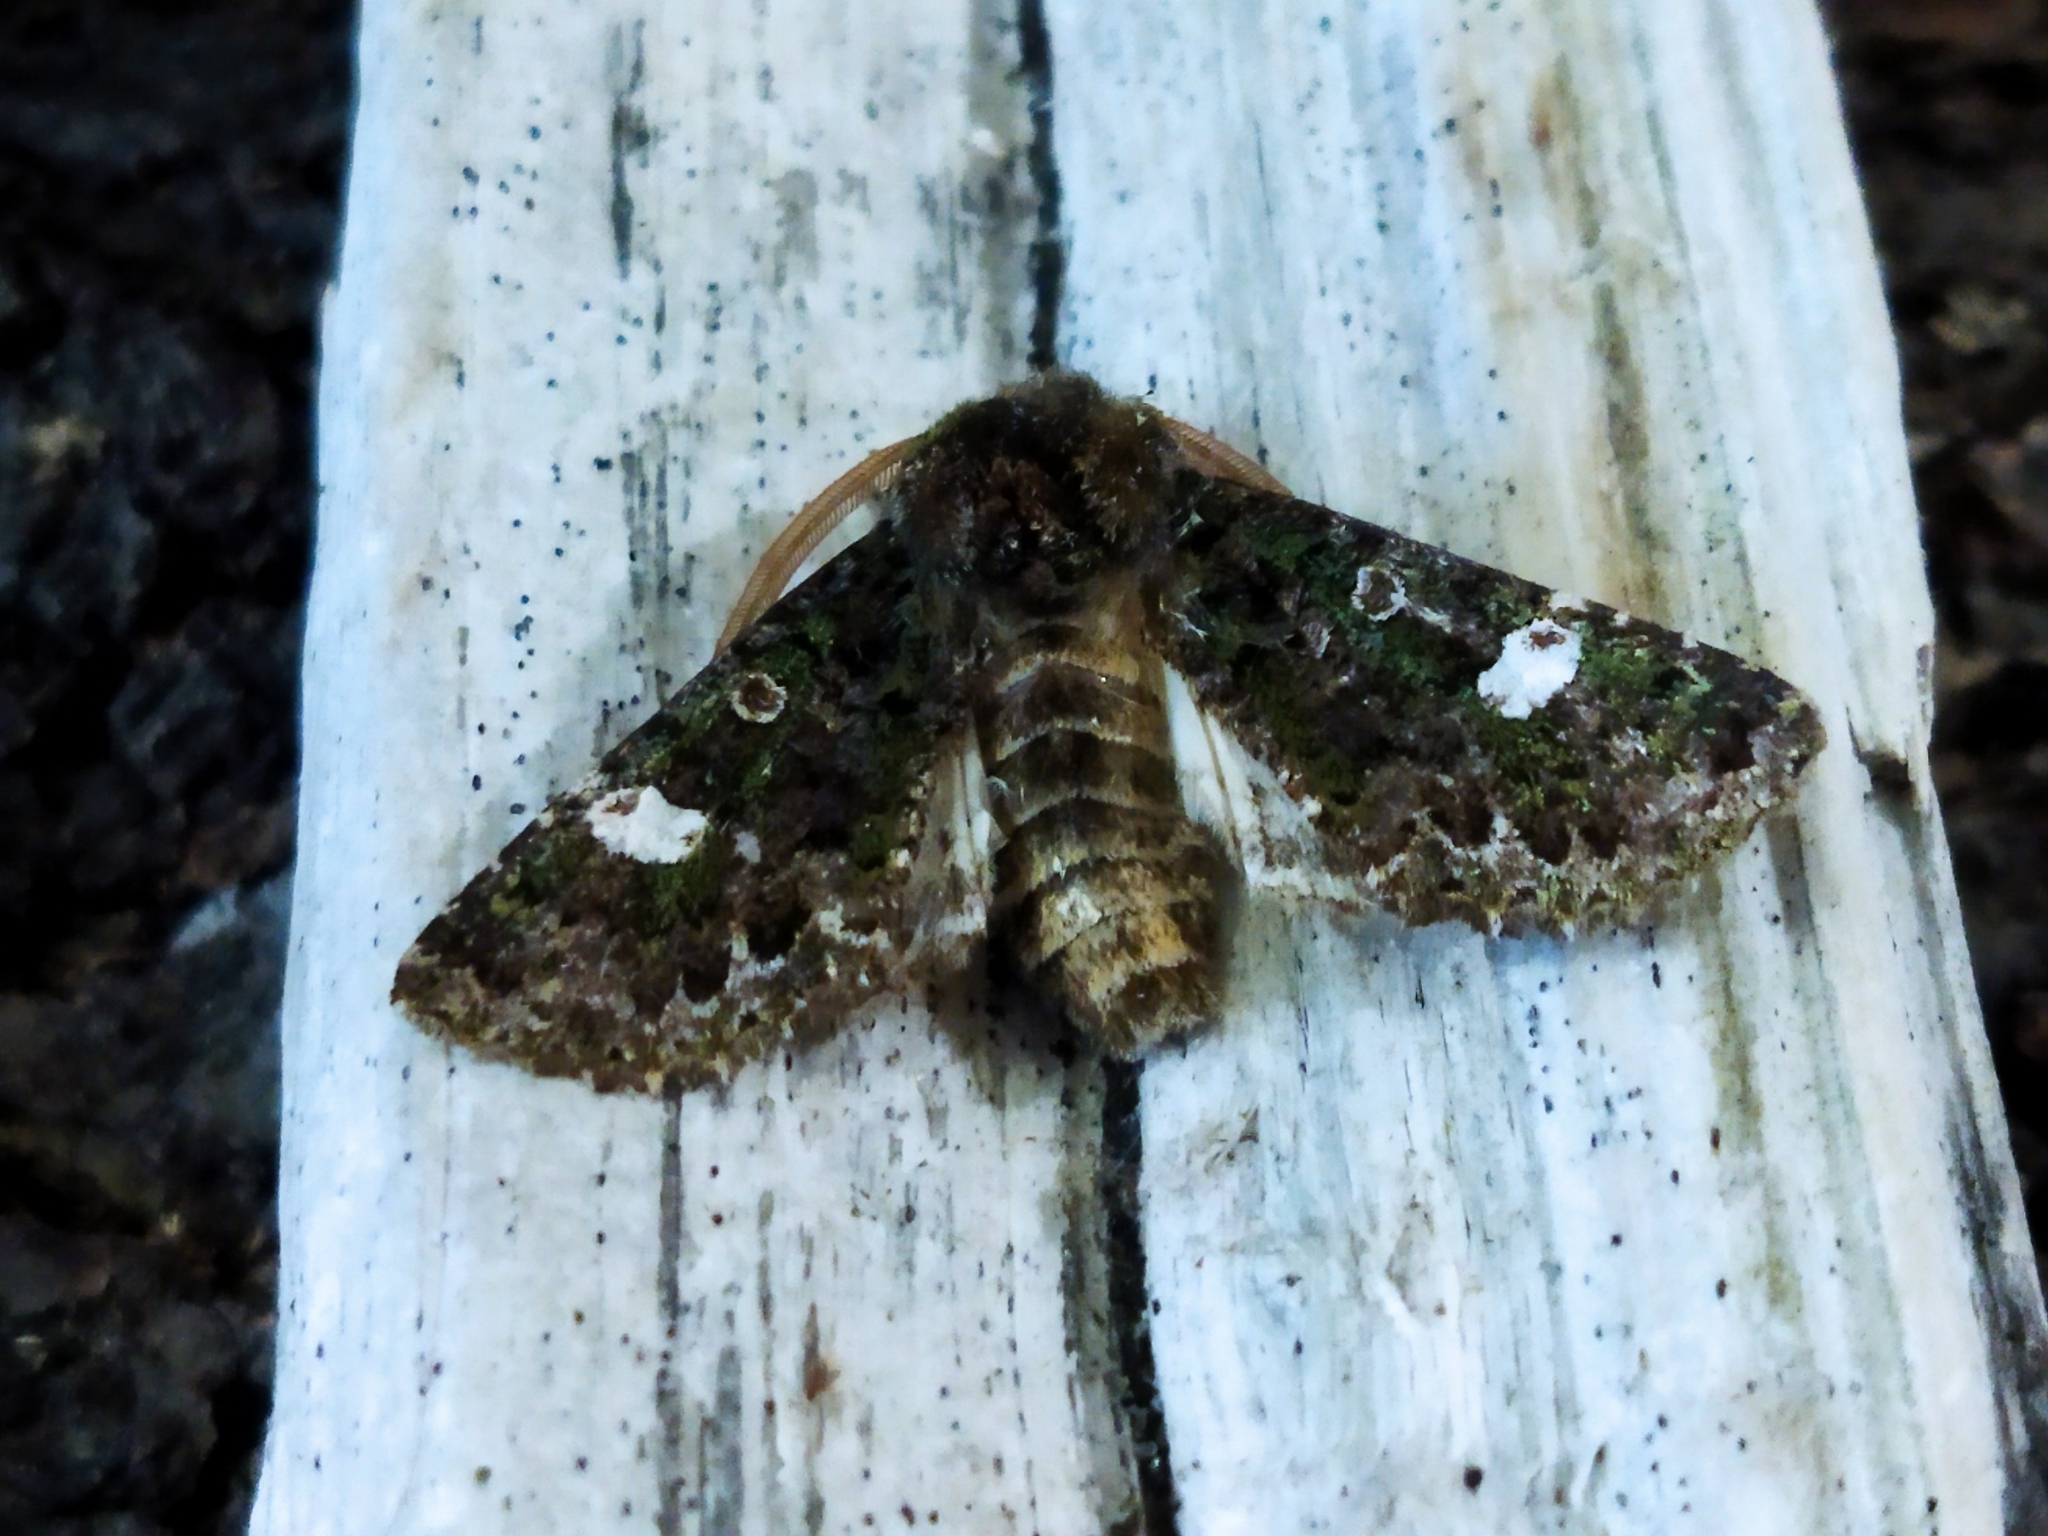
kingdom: Animalia
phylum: Arthropoda
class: Insecta
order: Lepidoptera
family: Noctuidae
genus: Valeria
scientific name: Valeria oleagina
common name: Green-brindled dot
